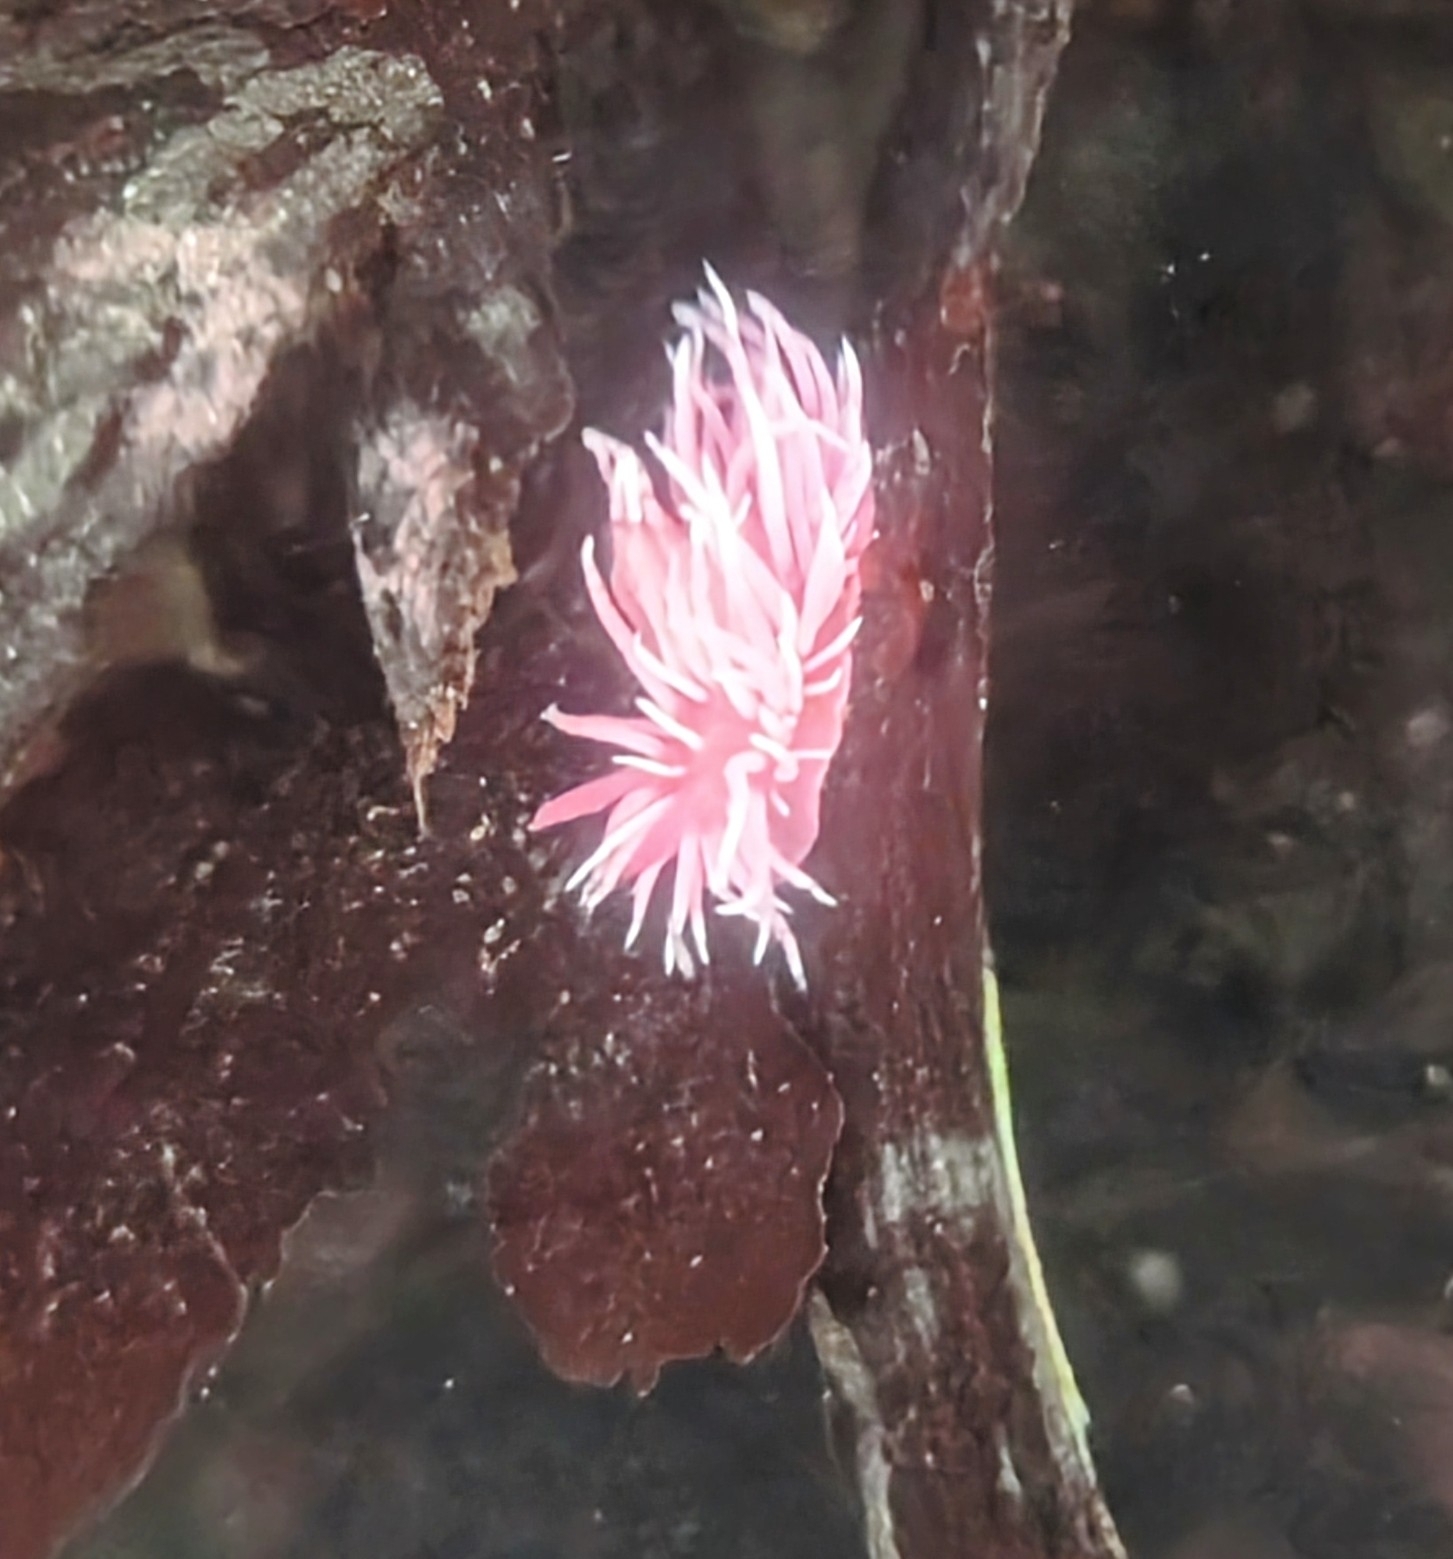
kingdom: Animalia
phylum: Mollusca
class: Gastropoda
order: Nudibranchia
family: Goniodorididae
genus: Okenia
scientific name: Okenia
